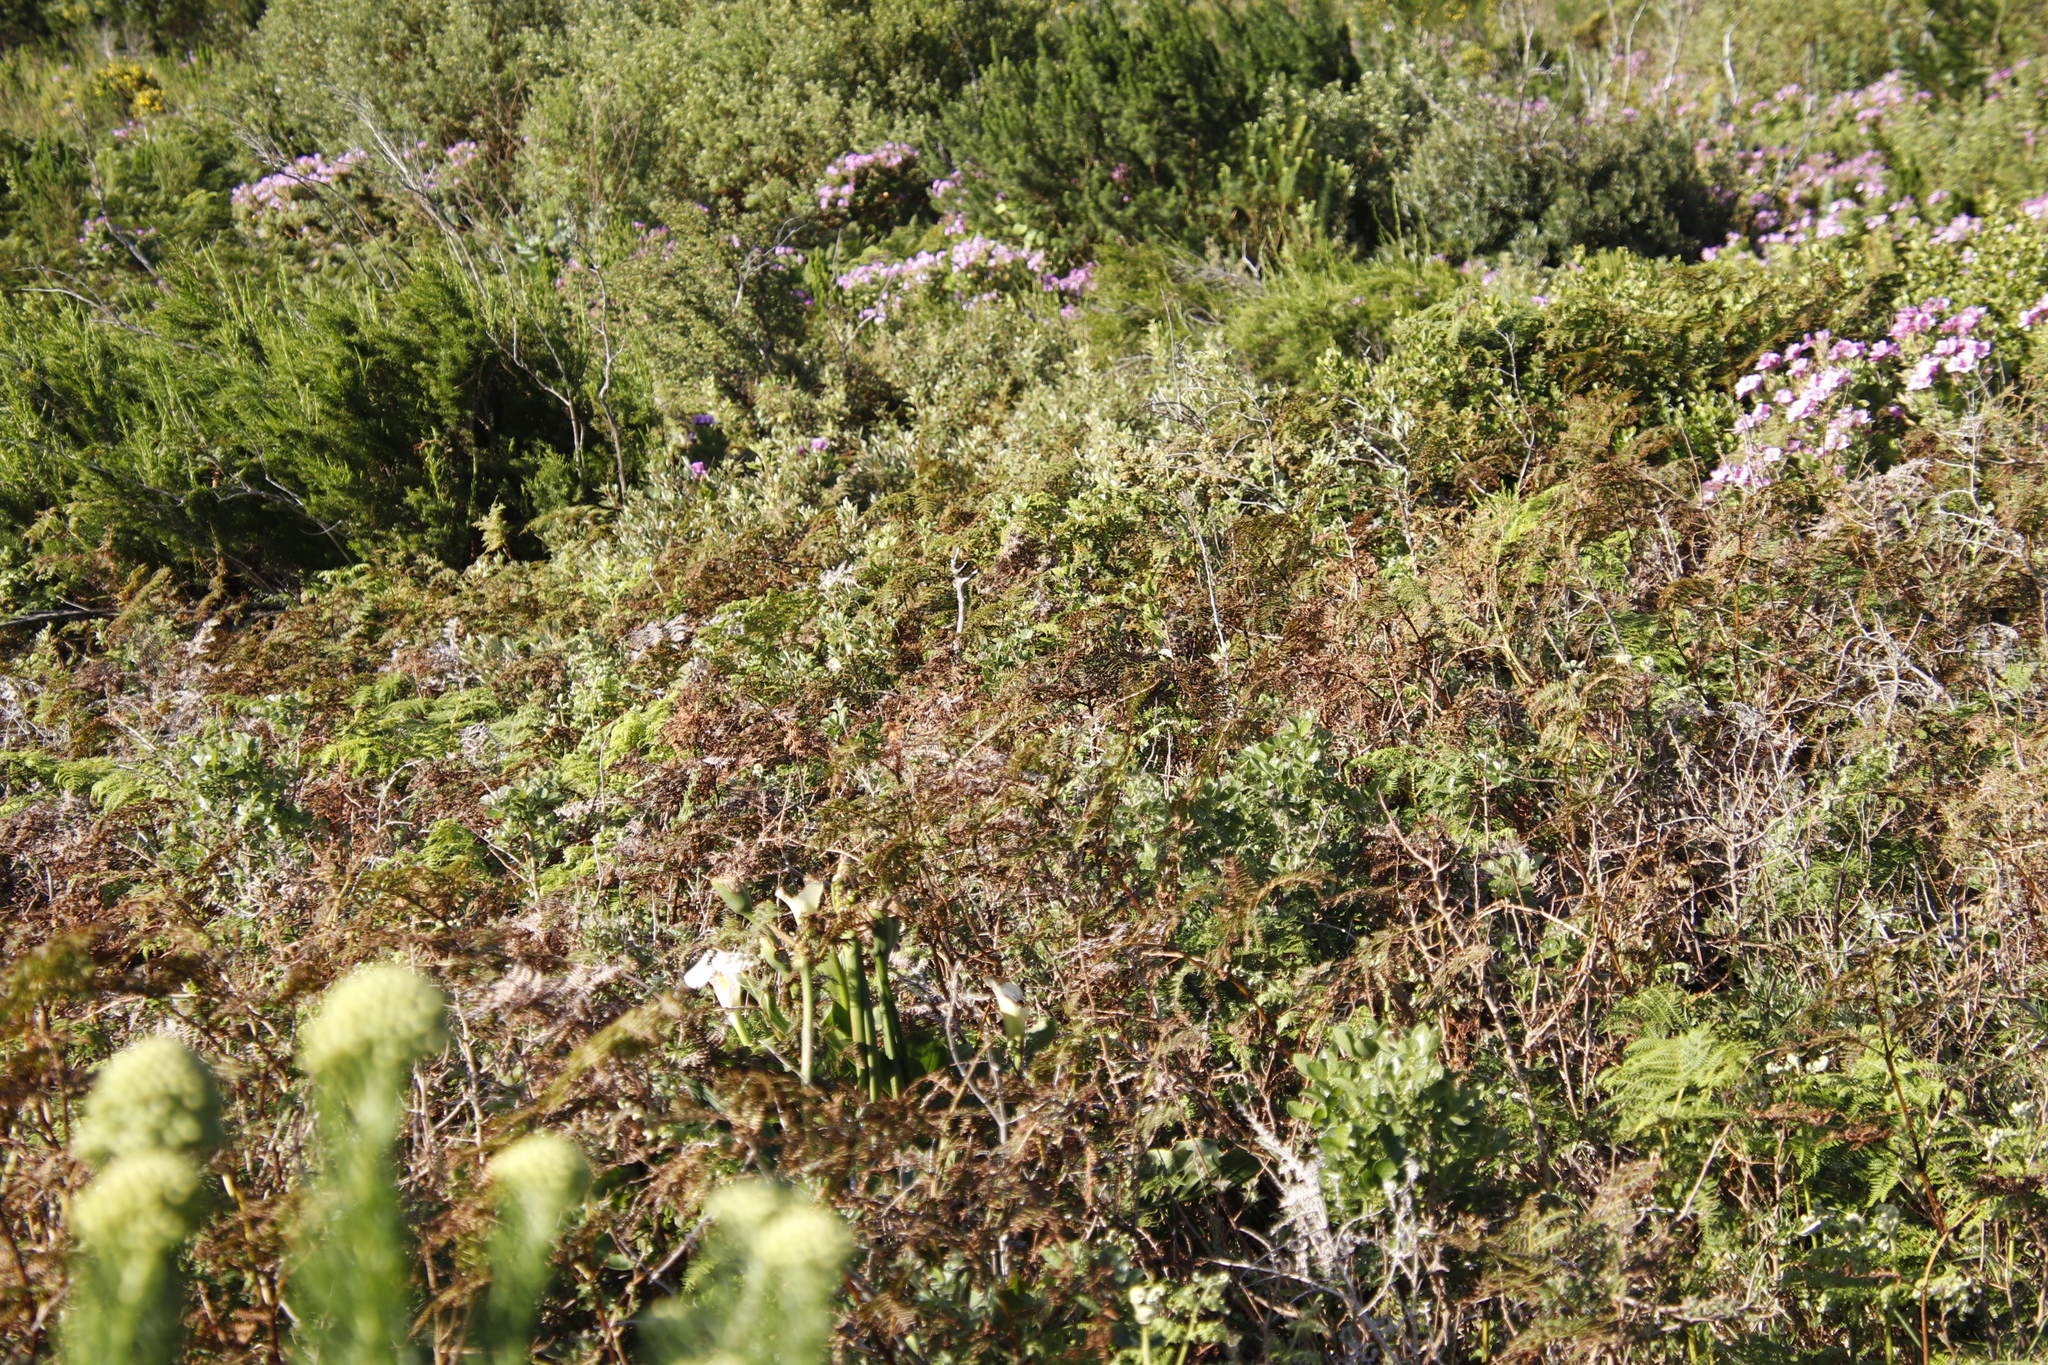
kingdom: Plantae
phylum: Tracheophyta
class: Polypodiopsida
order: Polypodiales
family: Dennstaedtiaceae
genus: Pteridium
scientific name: Pteridium aquilinum
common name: Bracken
